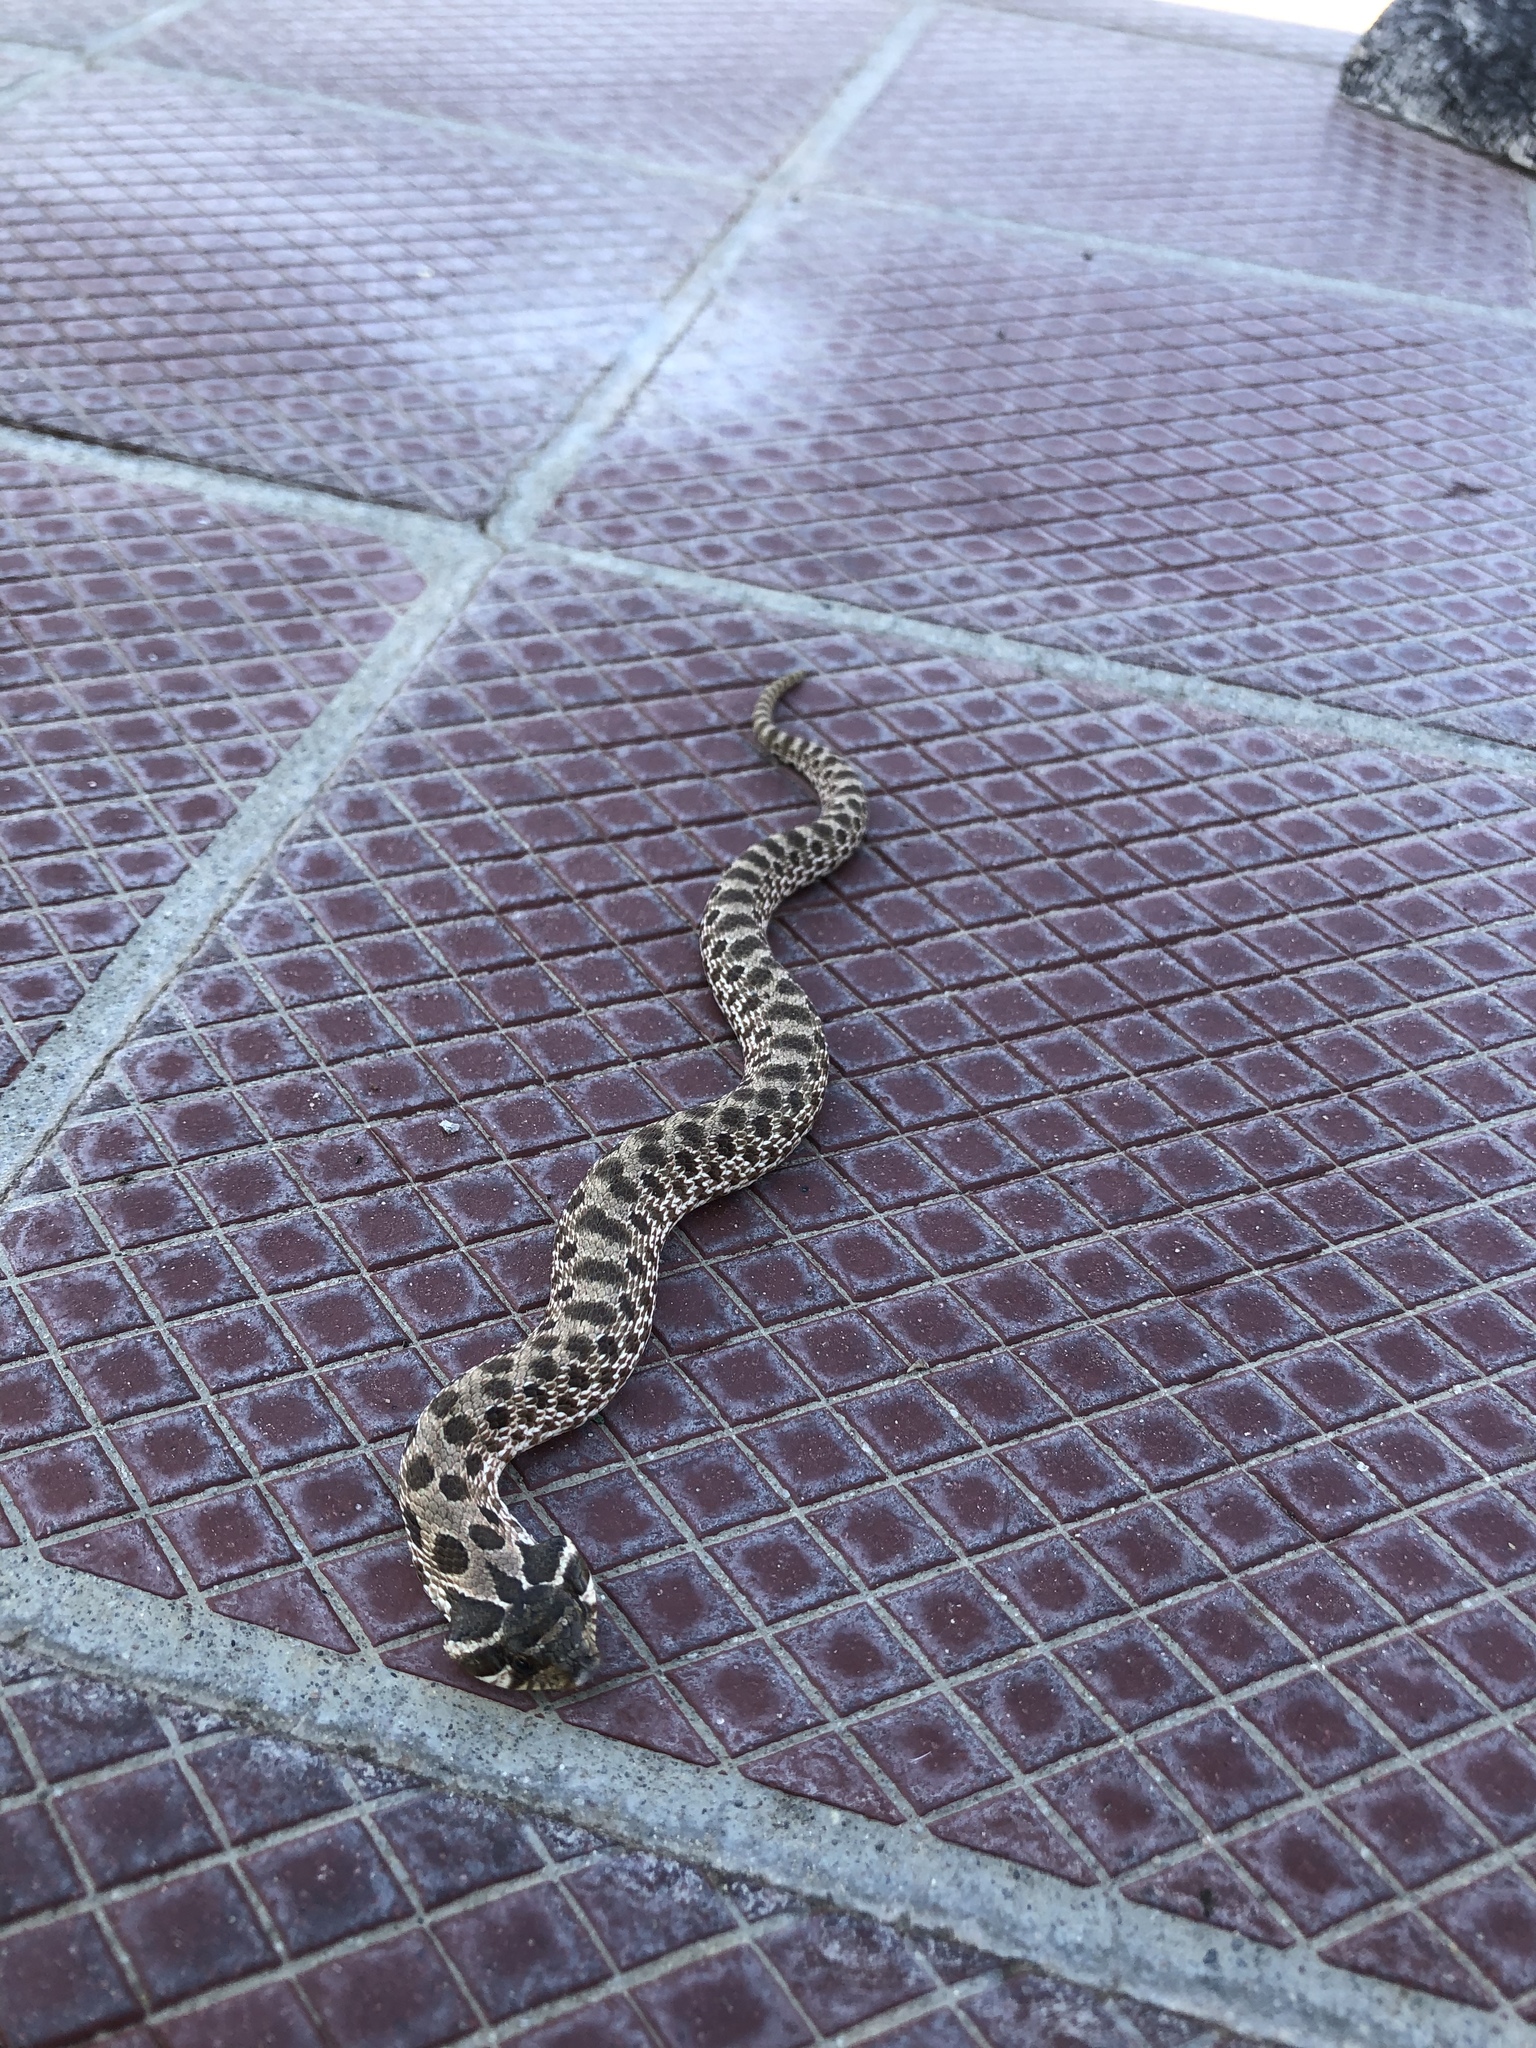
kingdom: Animalia
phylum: Chordata
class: Squamata
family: Colubridae
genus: Heterodon
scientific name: Heterodon nasicus
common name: Western hognose snake
